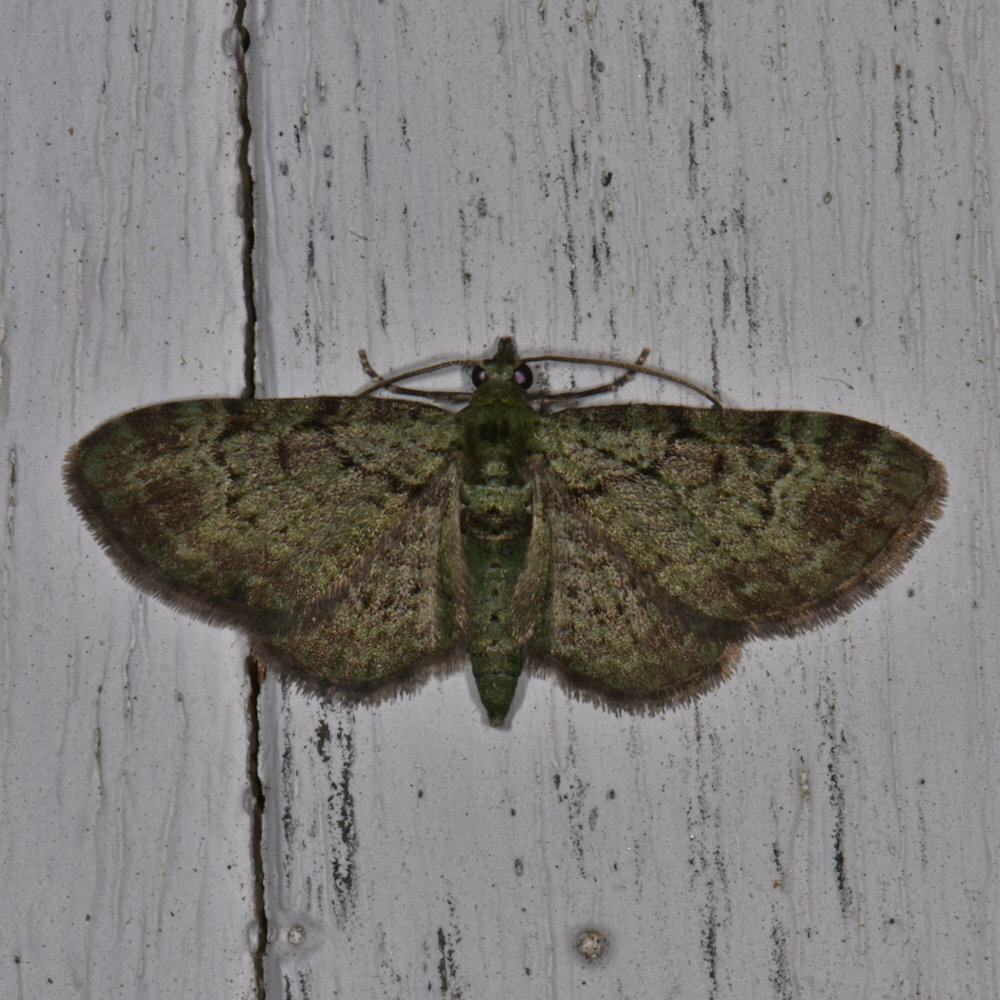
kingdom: Animalia
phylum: Arthropoda
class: Insecta
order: Lepidoptera
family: Geometridae
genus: Pasiphila
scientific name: Pasiphila rectangulata
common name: Green pug
